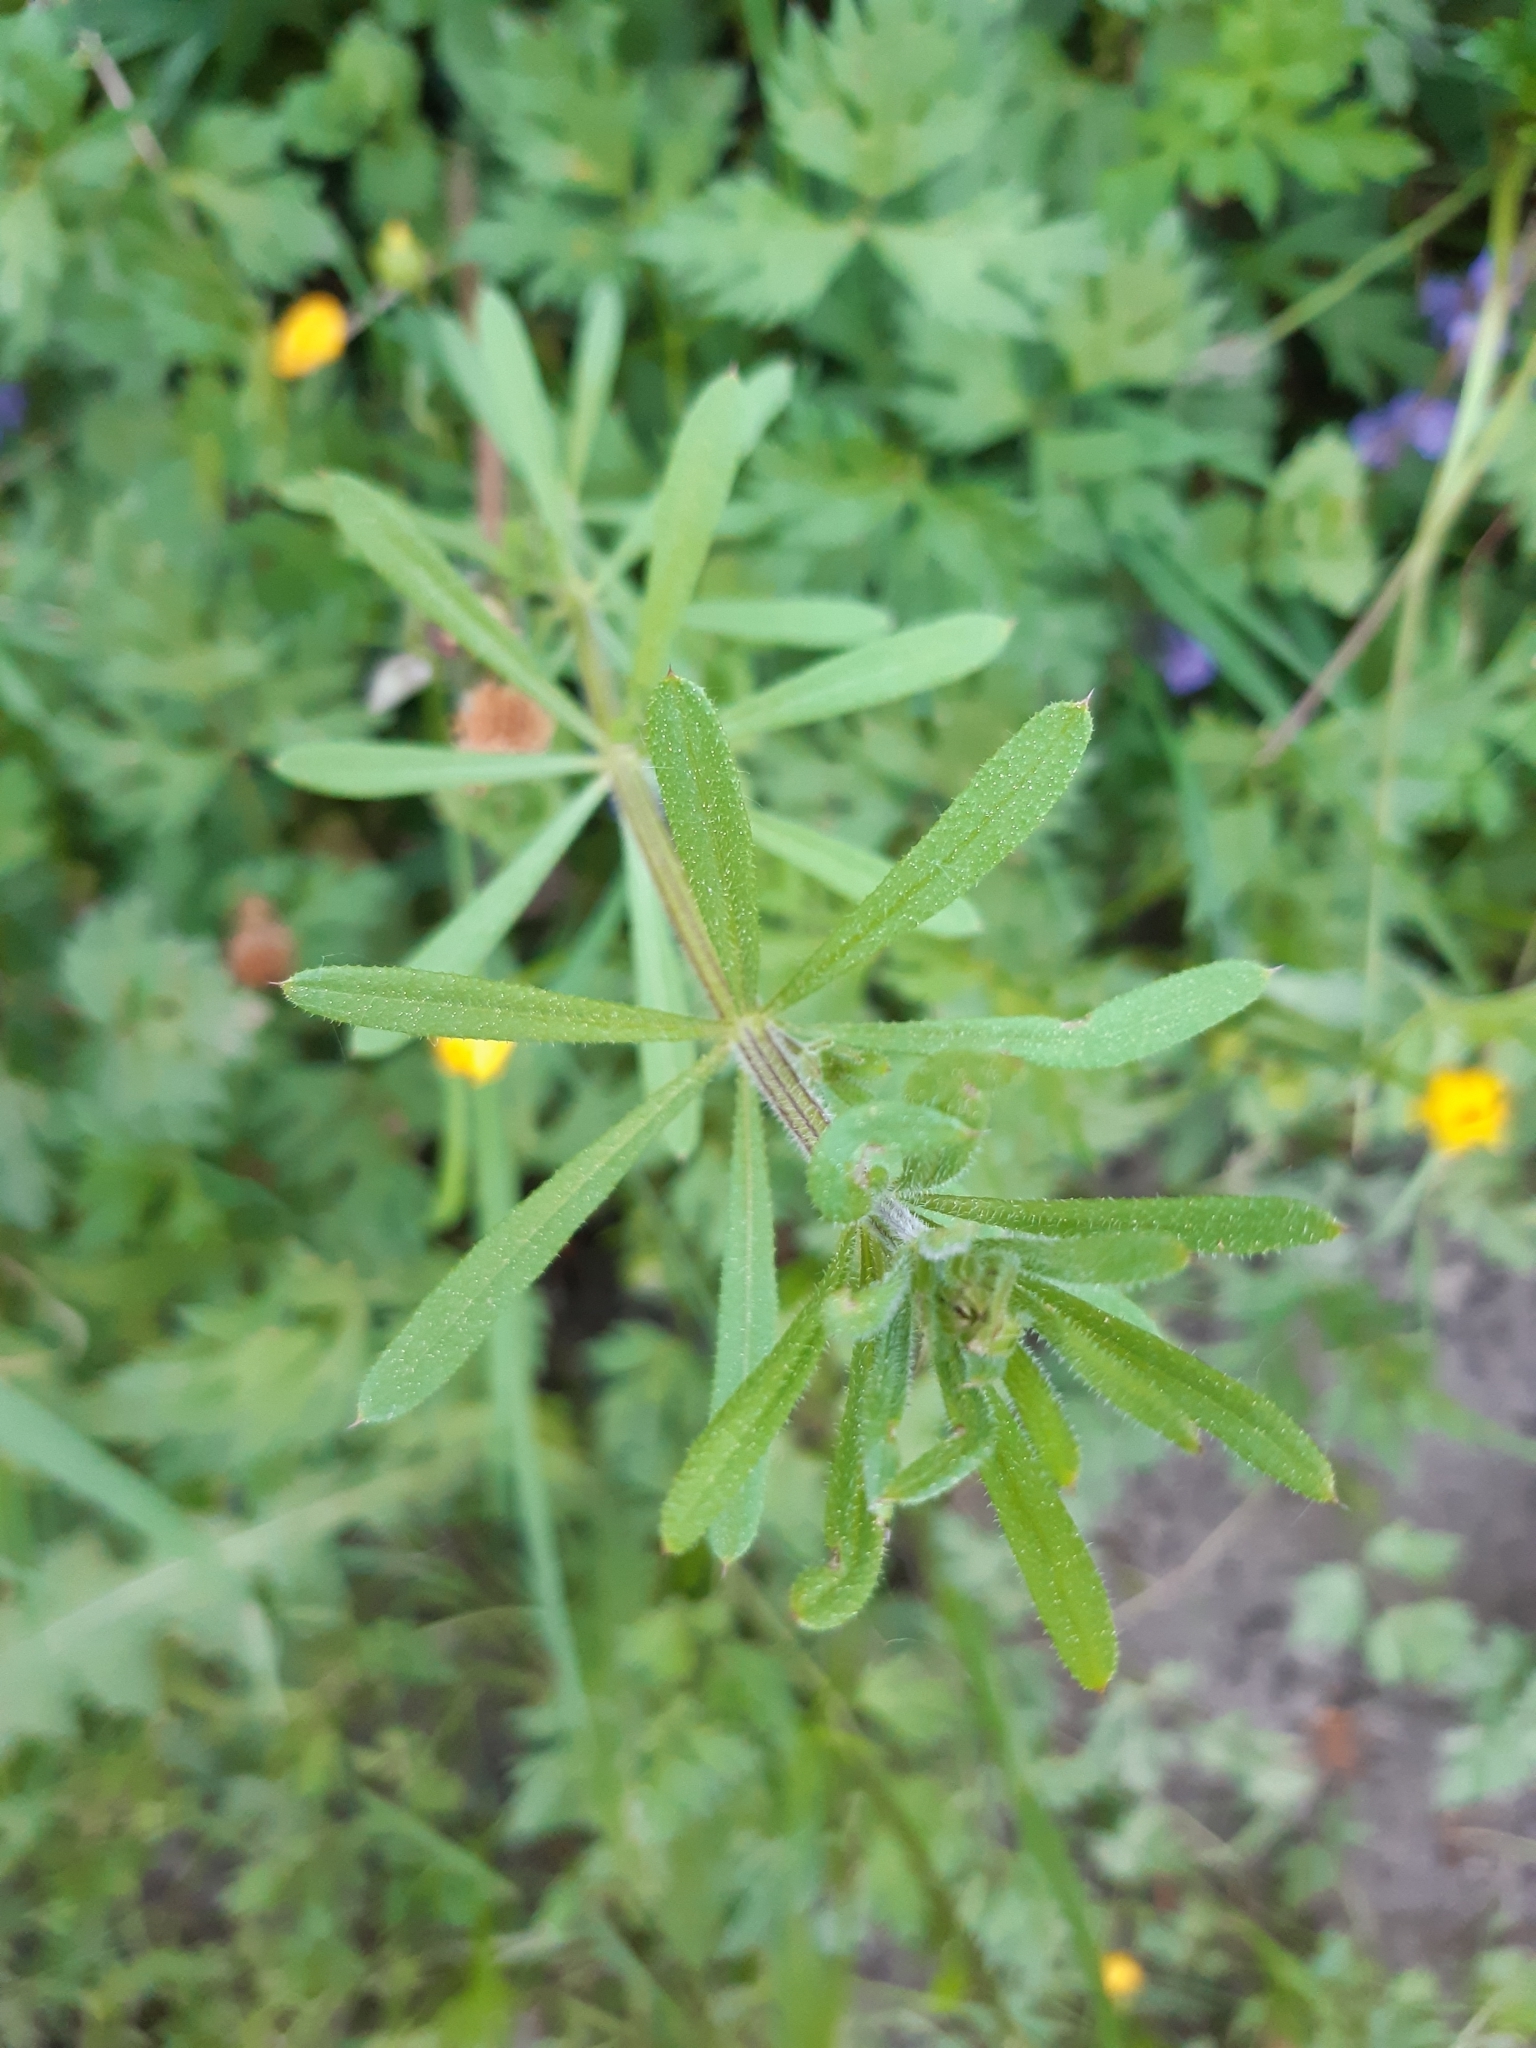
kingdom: Plantae
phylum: Tracheophyta
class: Magnoliopsida
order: Gentianales
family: Rubiaceae
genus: Galium
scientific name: Galium aparine
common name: Cleavers
